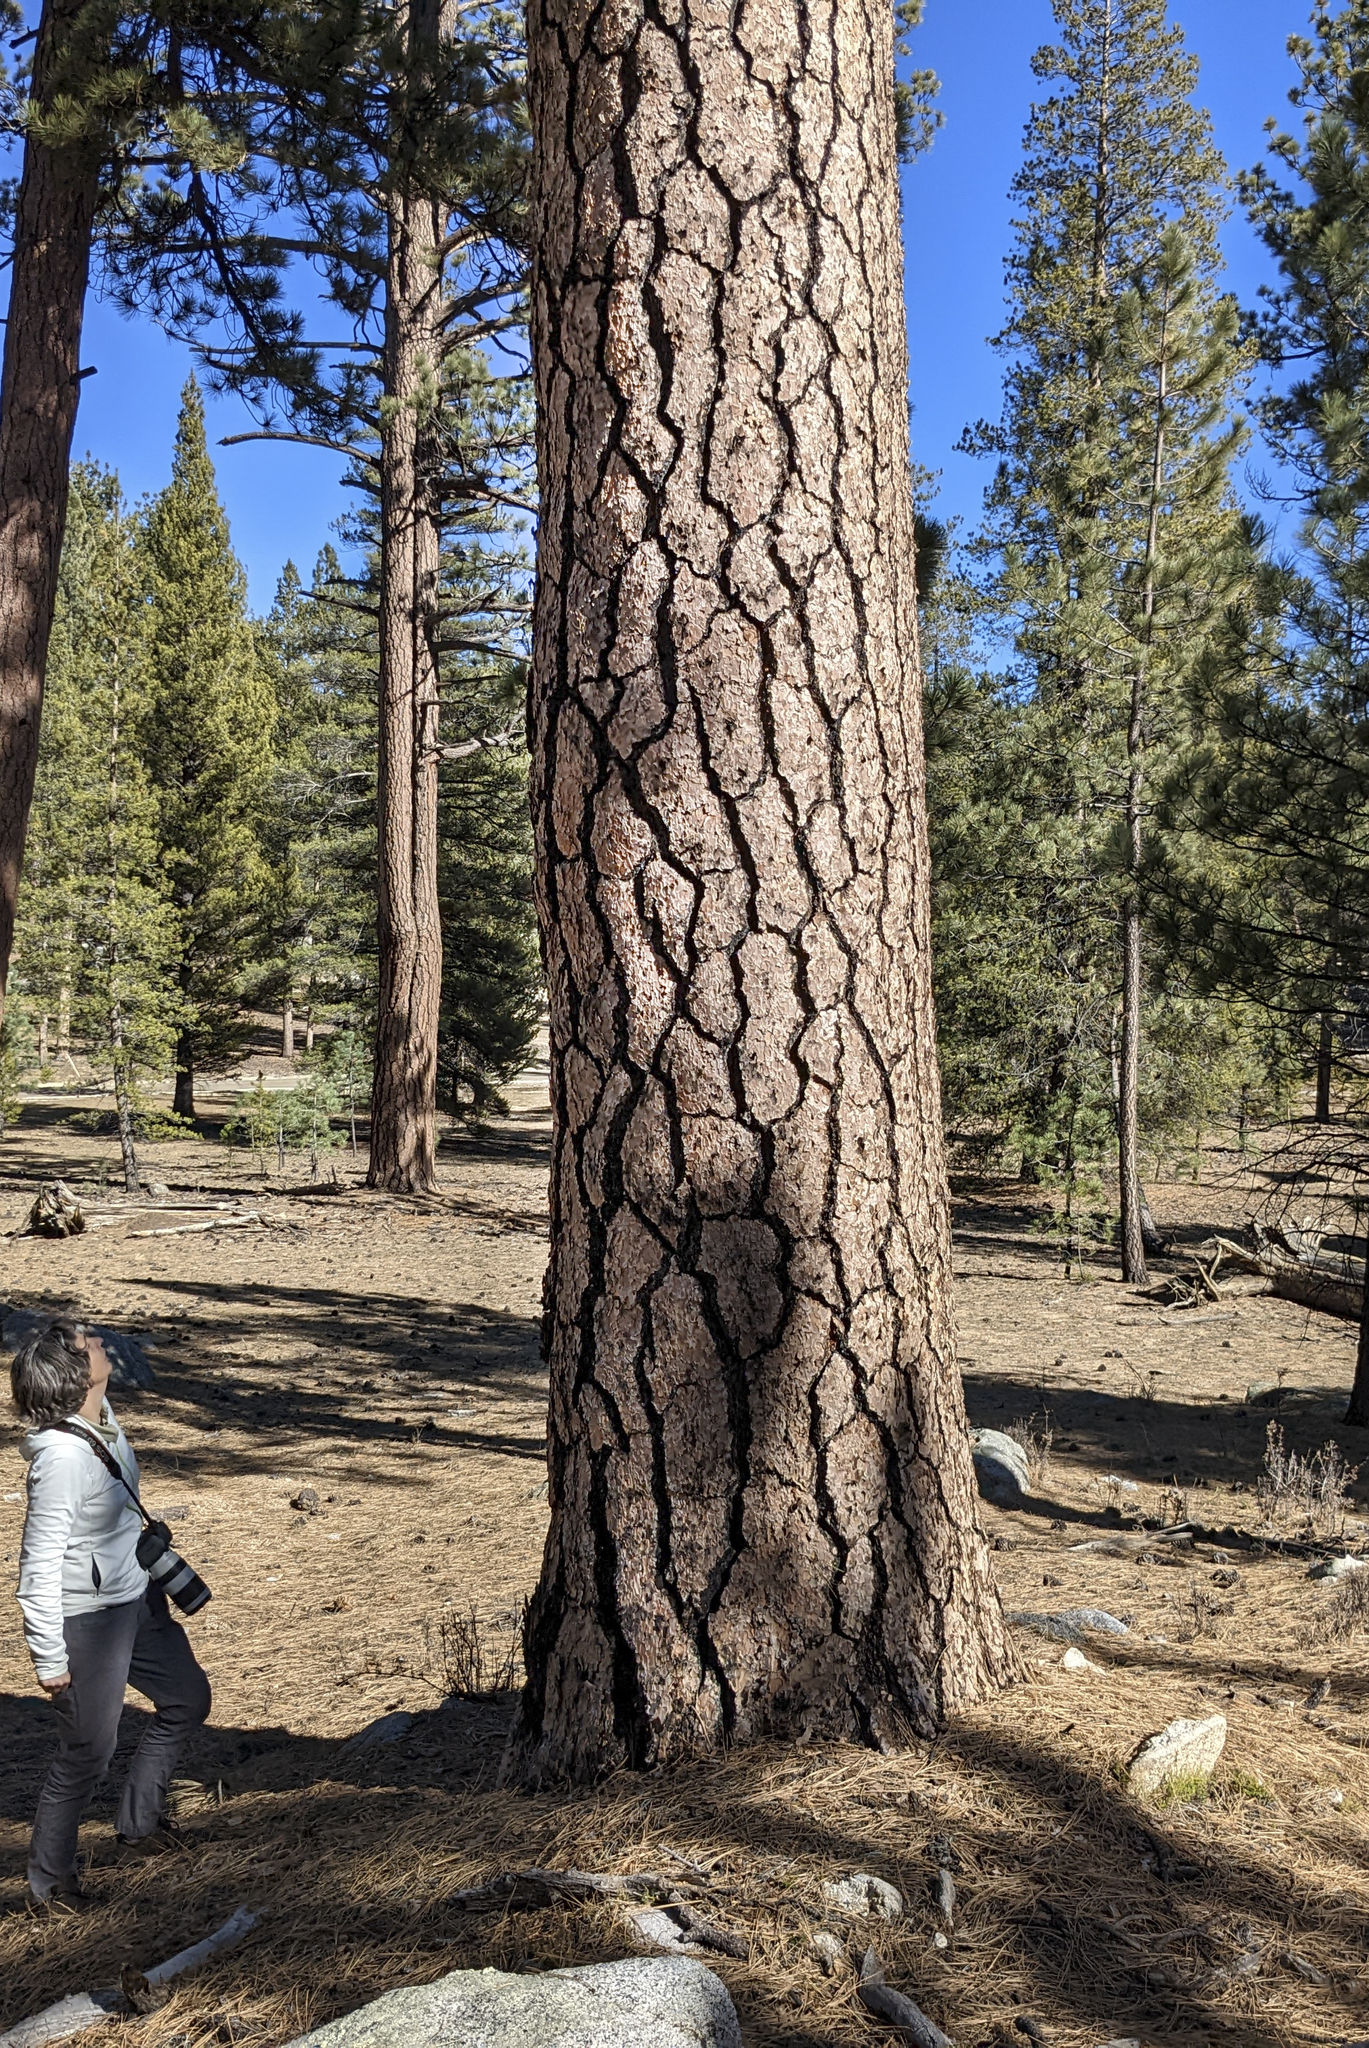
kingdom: Plantae
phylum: Tracheophyta
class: Pinopsida
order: Pinales
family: Pinaceae
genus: Pinus
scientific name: Pinus jeffreyi
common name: Jeffrey pine
